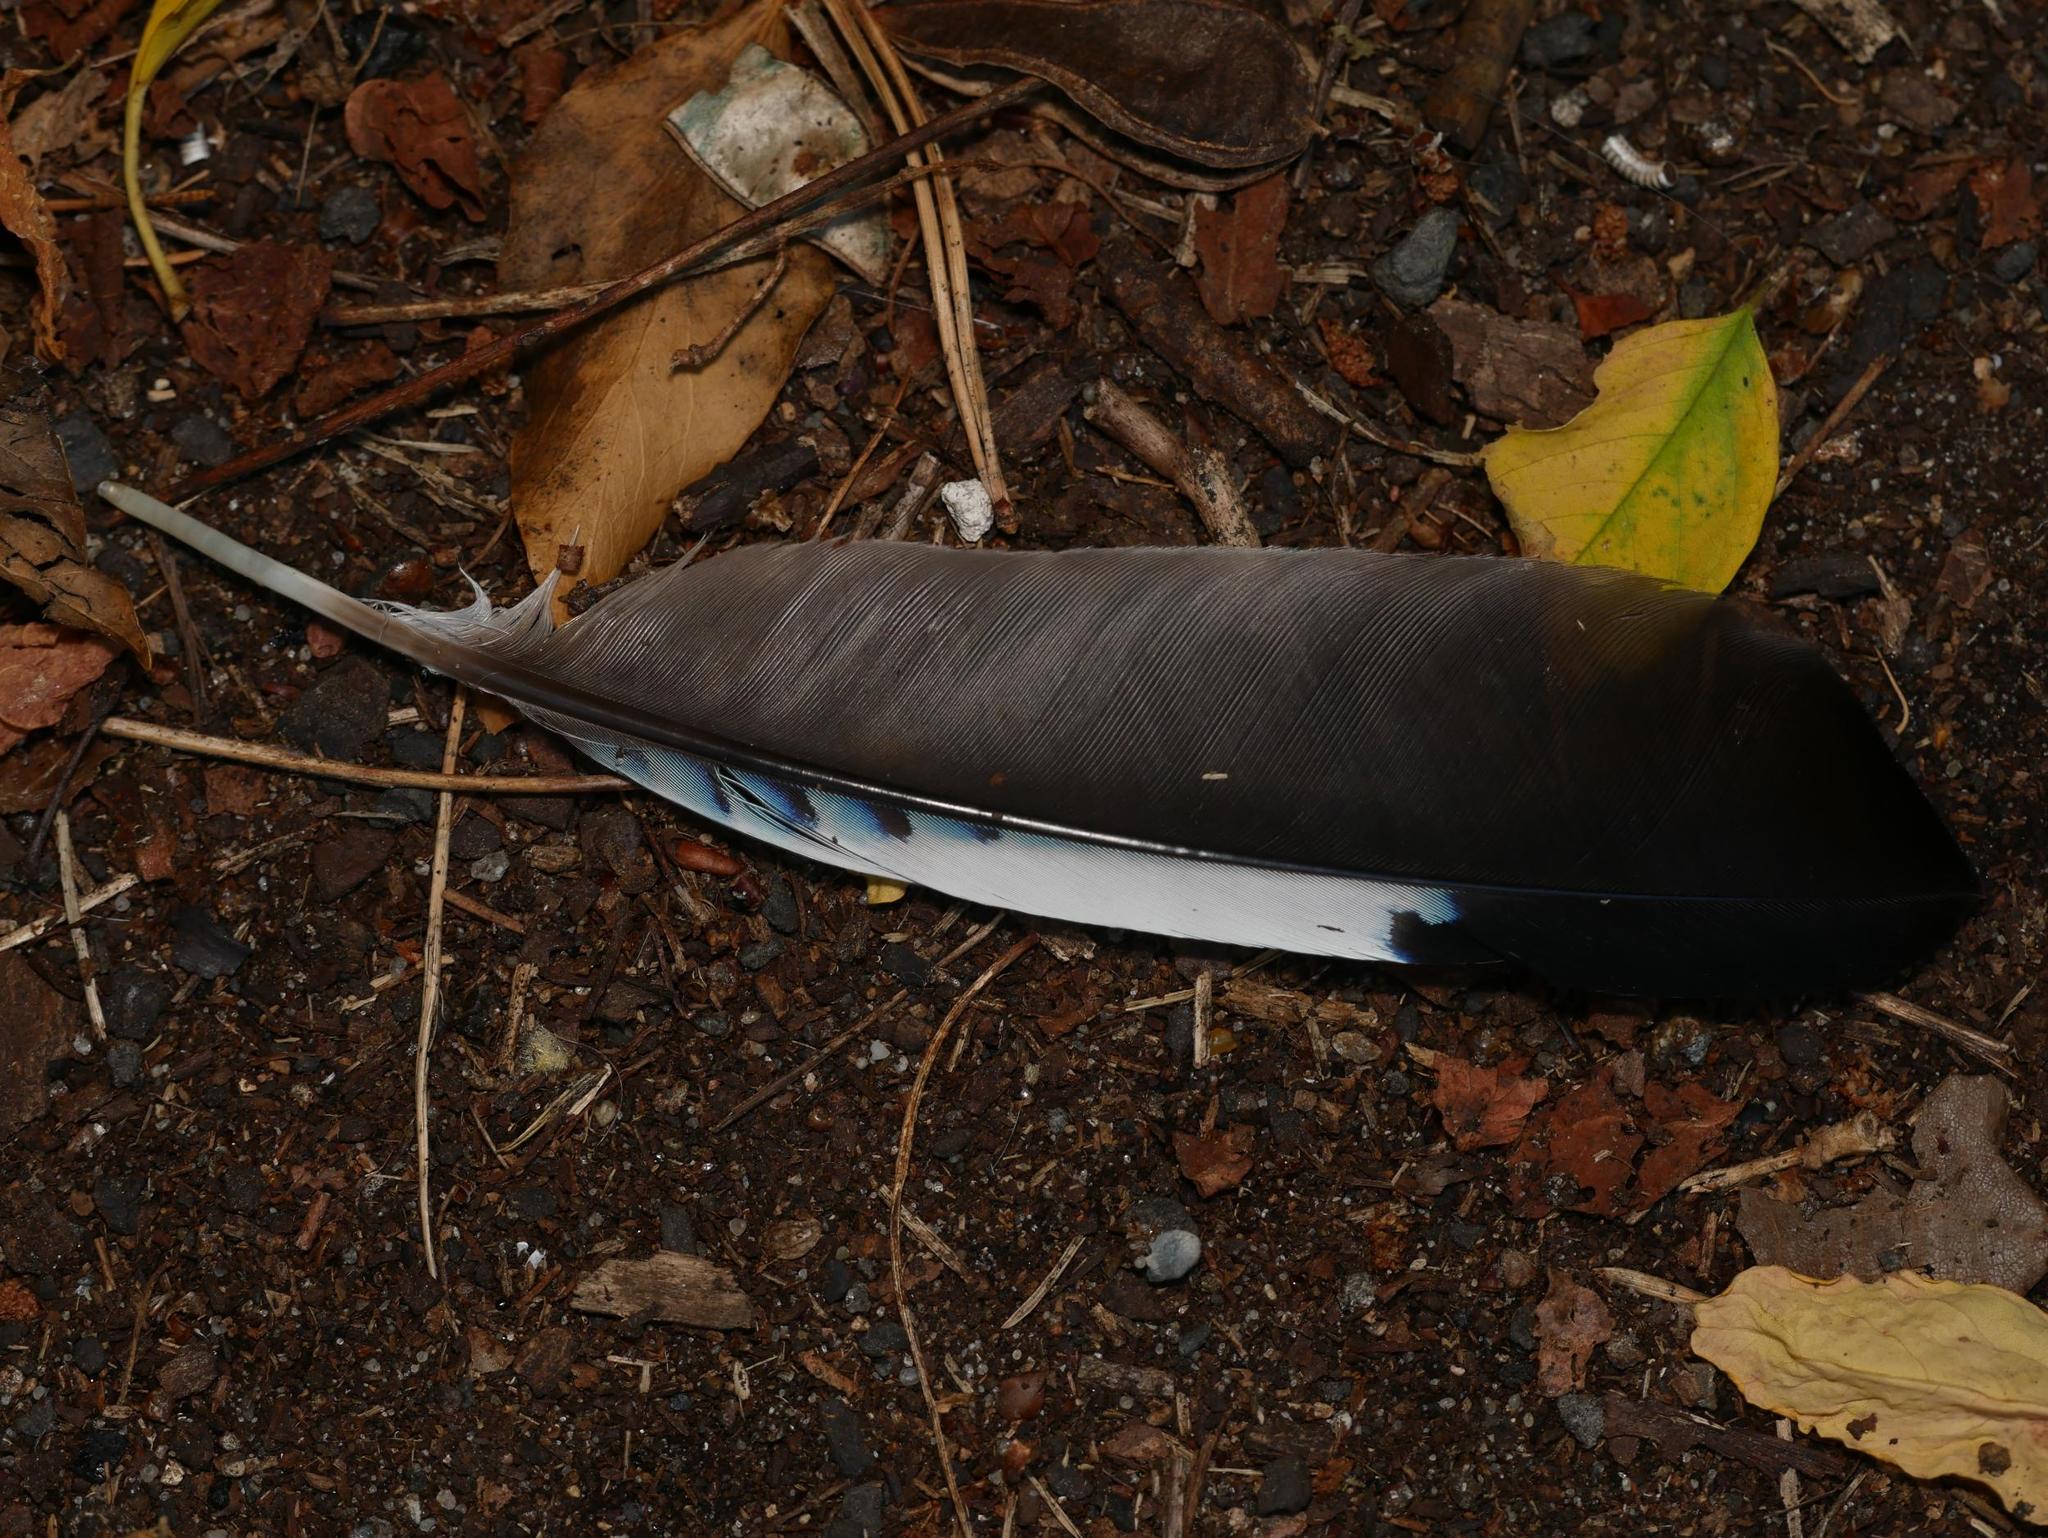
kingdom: Animalia
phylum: Chordata
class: Aves
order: Passeriformes
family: Corvidae
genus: Garrulus
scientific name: Garrulus glandarius
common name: Eurasian jay
